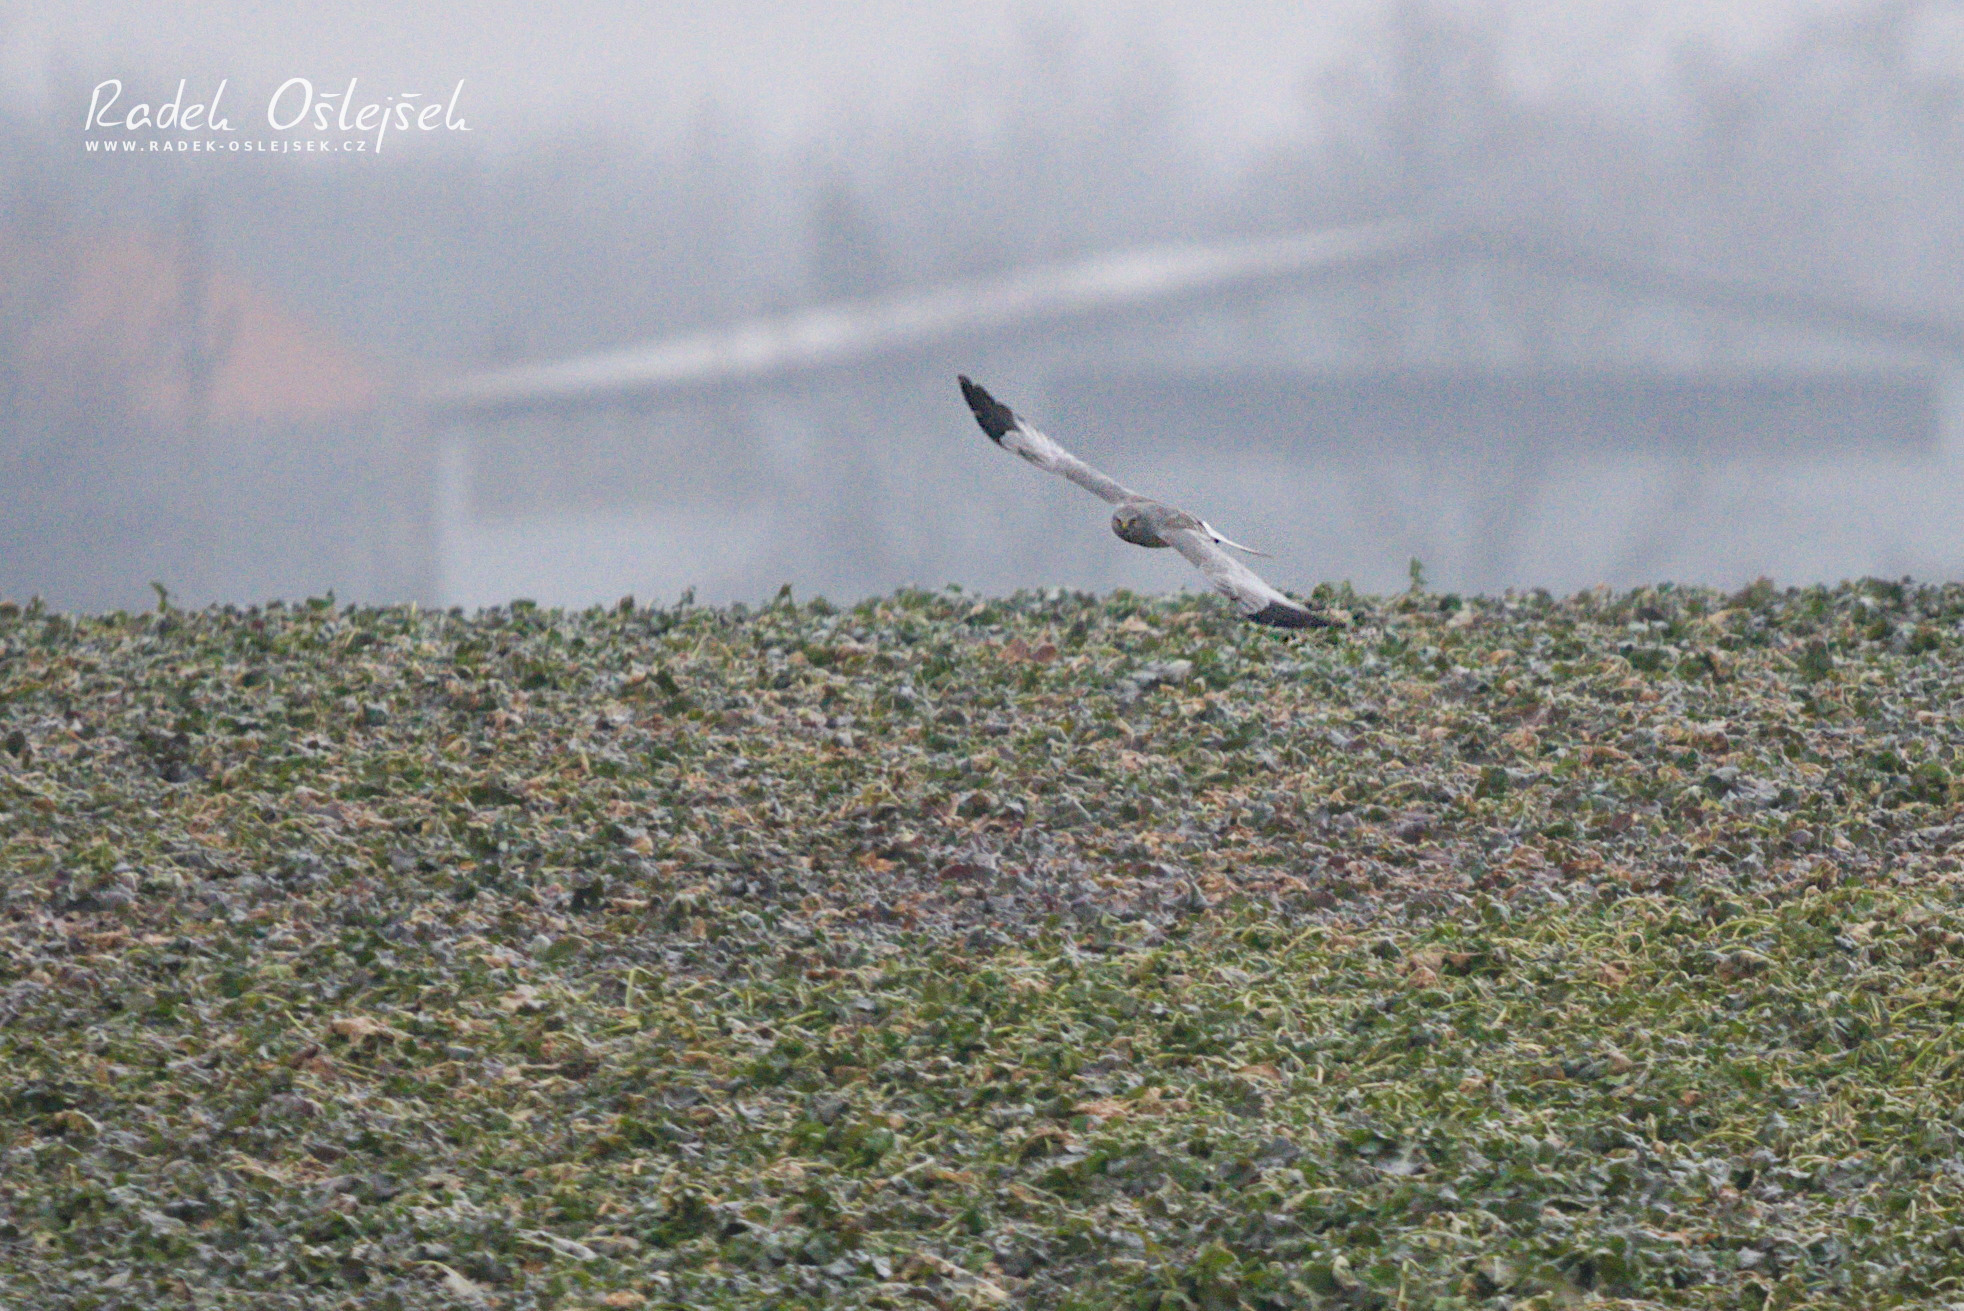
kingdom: Animalia
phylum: Chordata
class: Aves
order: Accipitriformes
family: Accipitridae
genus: Circus
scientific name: Circus cyaneus
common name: Hen harrier
